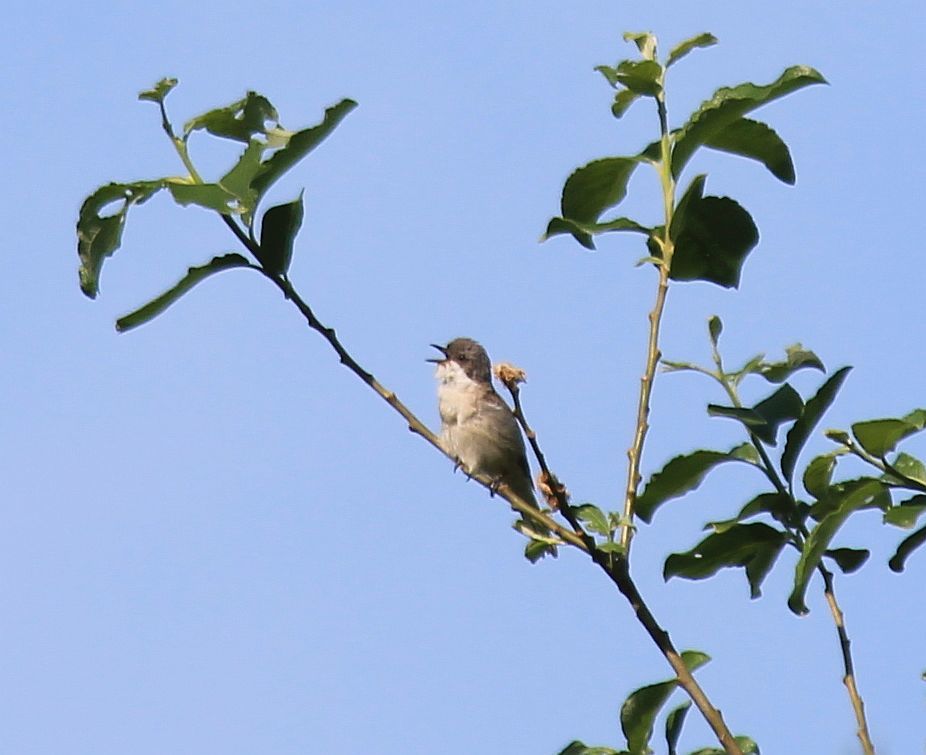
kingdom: Animalia
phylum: Chordata
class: Aves
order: Passeriformes
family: Sylviidae
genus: Sylvia
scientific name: Sylvia curruca
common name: Lesser whitethroat
